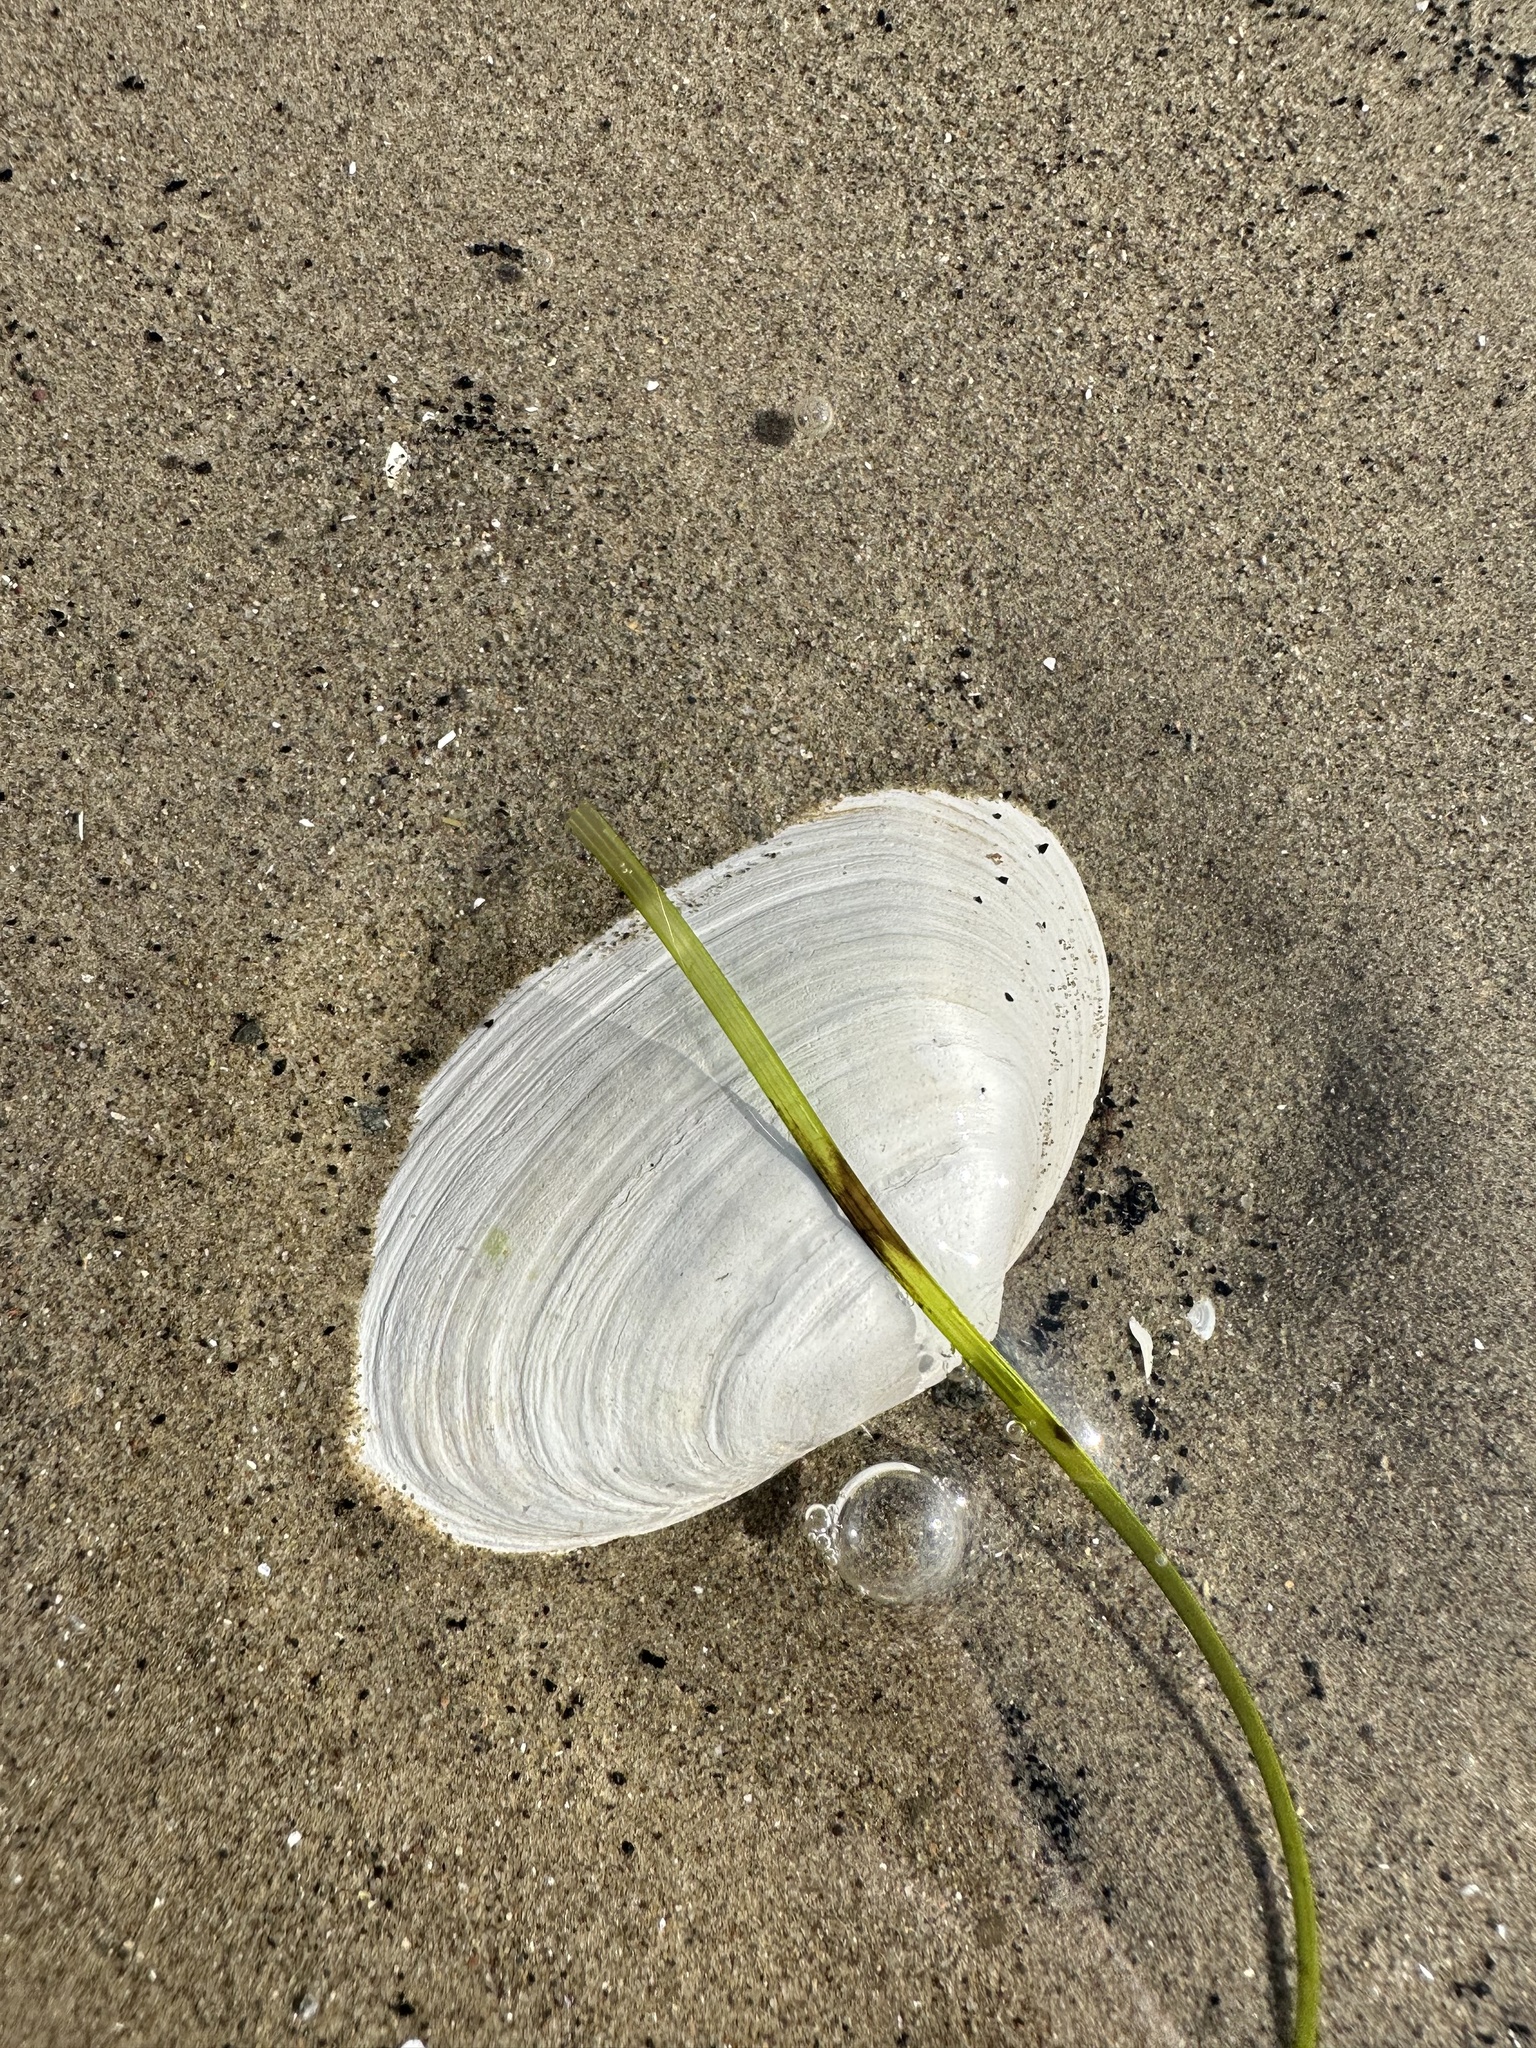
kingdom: Animalia
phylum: Mollusca
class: Bivalvia
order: Myida
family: Myidae
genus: Mya
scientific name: Mya arenaria
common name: Soft-shelled clam
